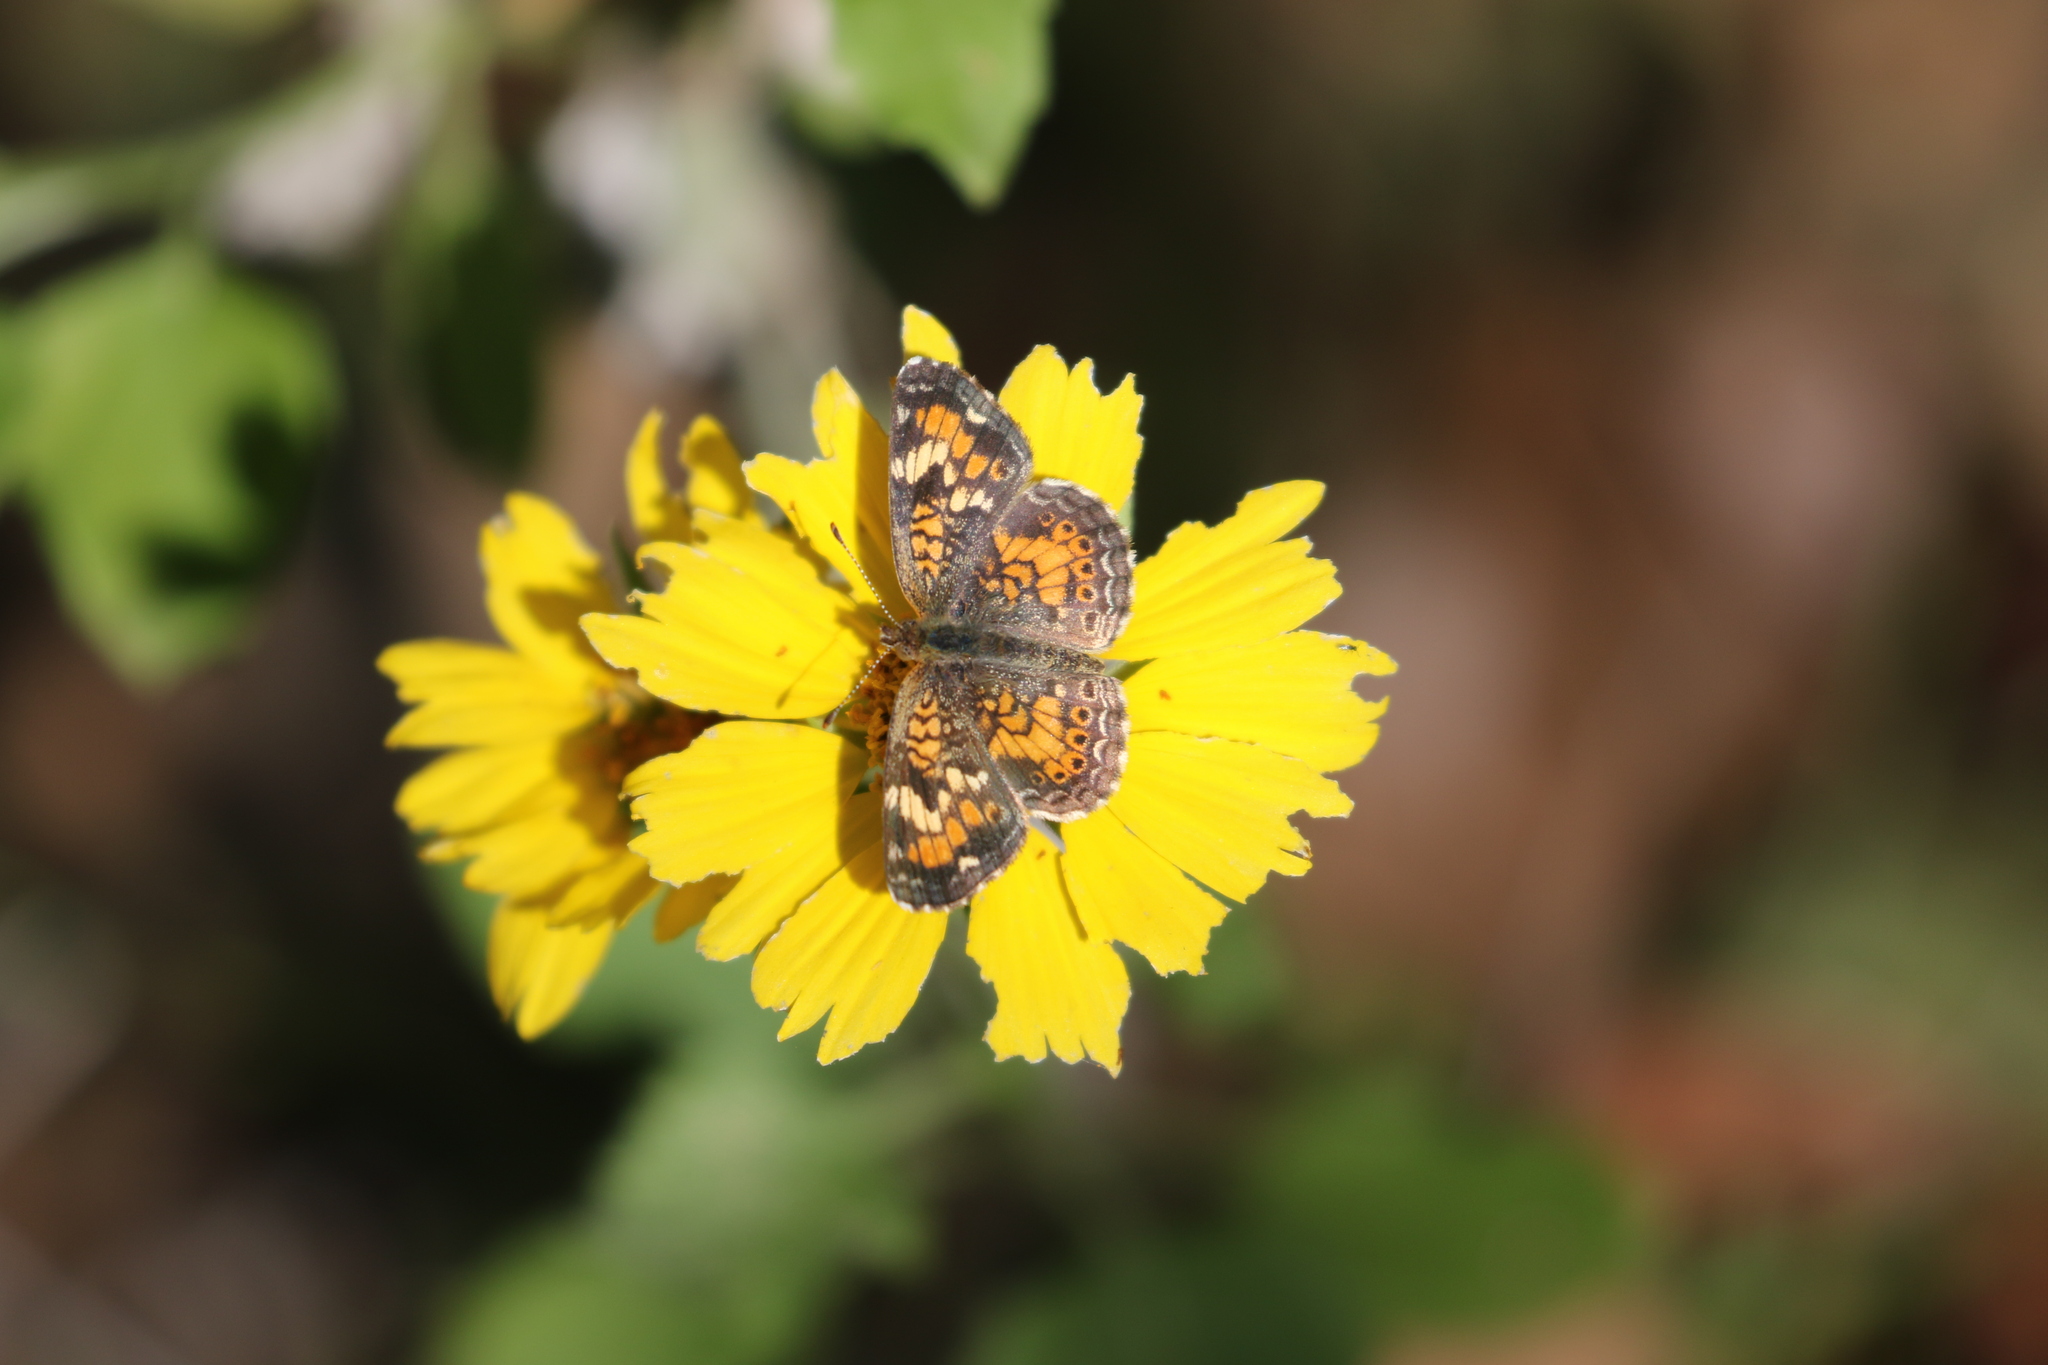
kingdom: Animalia
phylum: Arthropoda
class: Insecta
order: Lepidoptera
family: Nymphalidae
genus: Phyciodes
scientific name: Phyciodes phaon
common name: Phaon crescent
